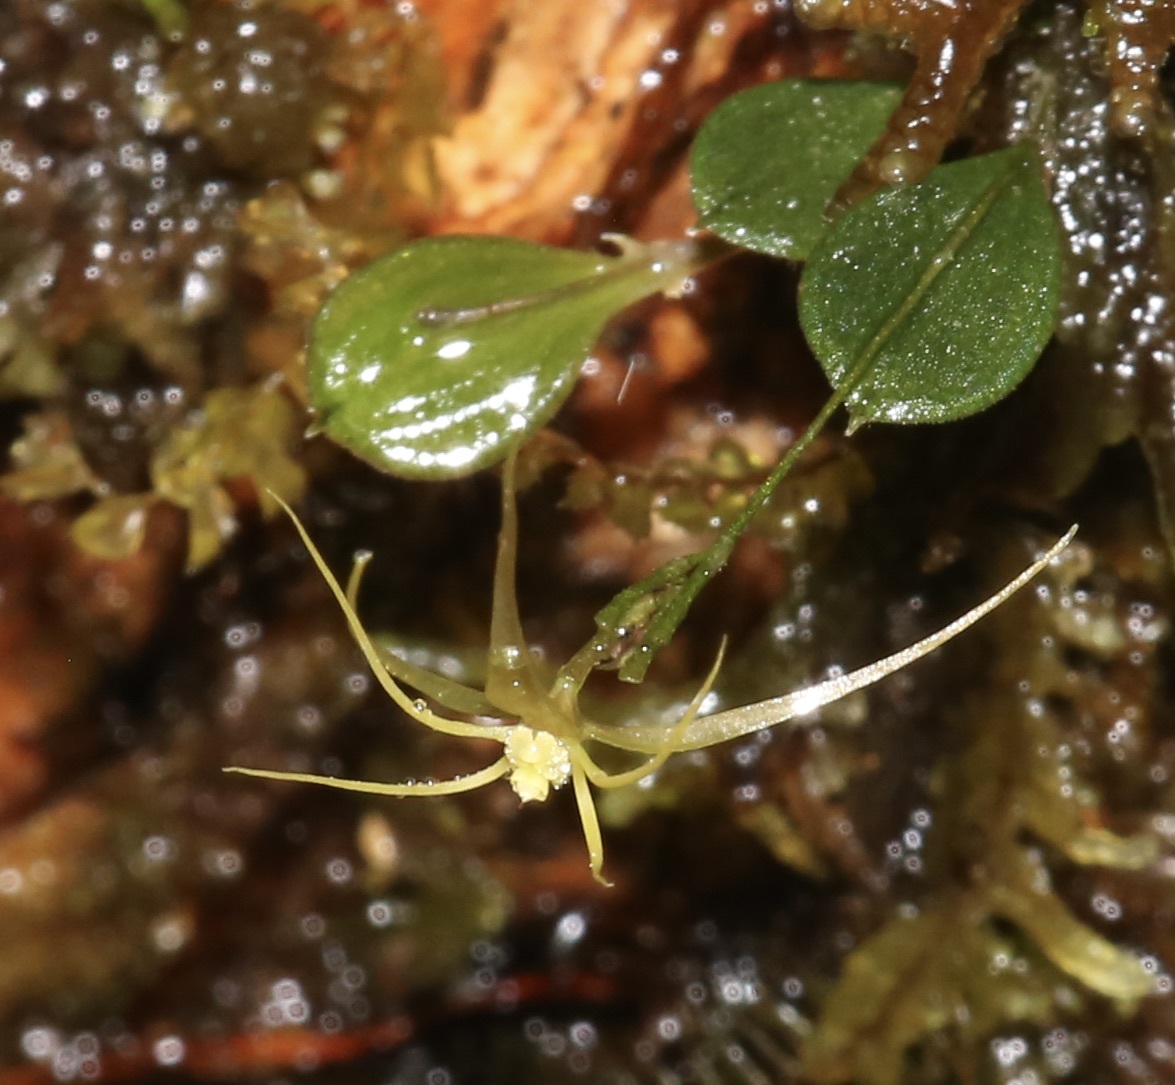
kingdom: Plantae
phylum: Tracheophyta
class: Liliopsida
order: Asparagales
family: Orchidaceae
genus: Lepanthes
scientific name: Lepanthes filamentosa
